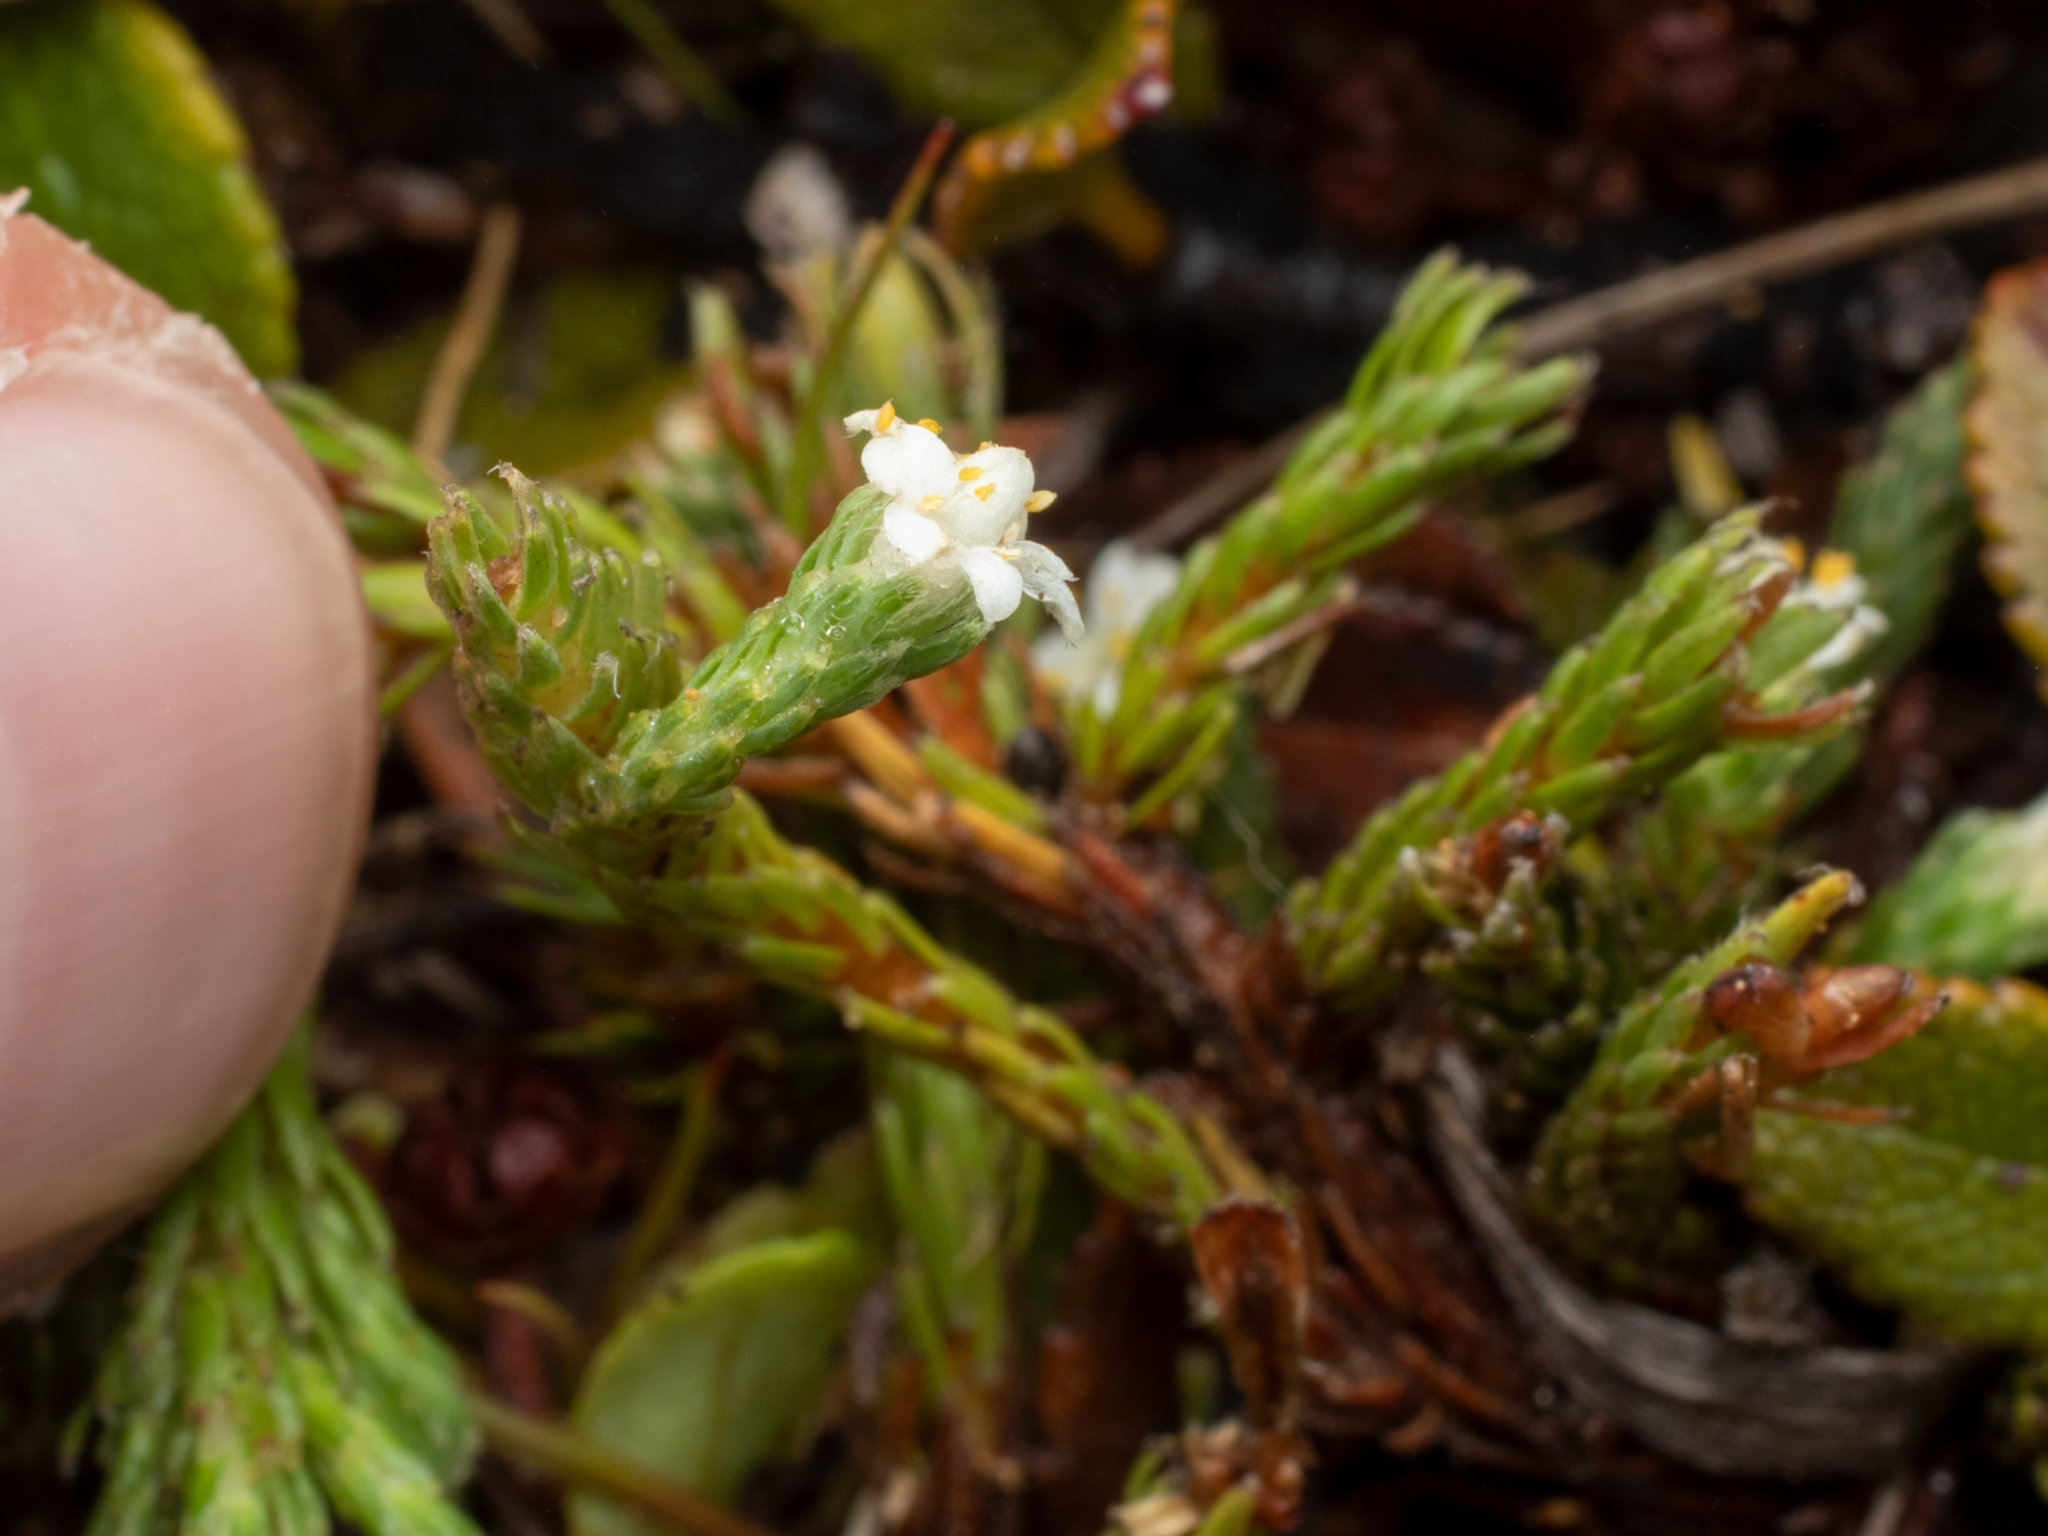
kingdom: Plantae
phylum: Tracheophyta
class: Magnoliopsida
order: Malvales
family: Thymelaeaceae
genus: Kelleria
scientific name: Kelleria dieffenbachii
